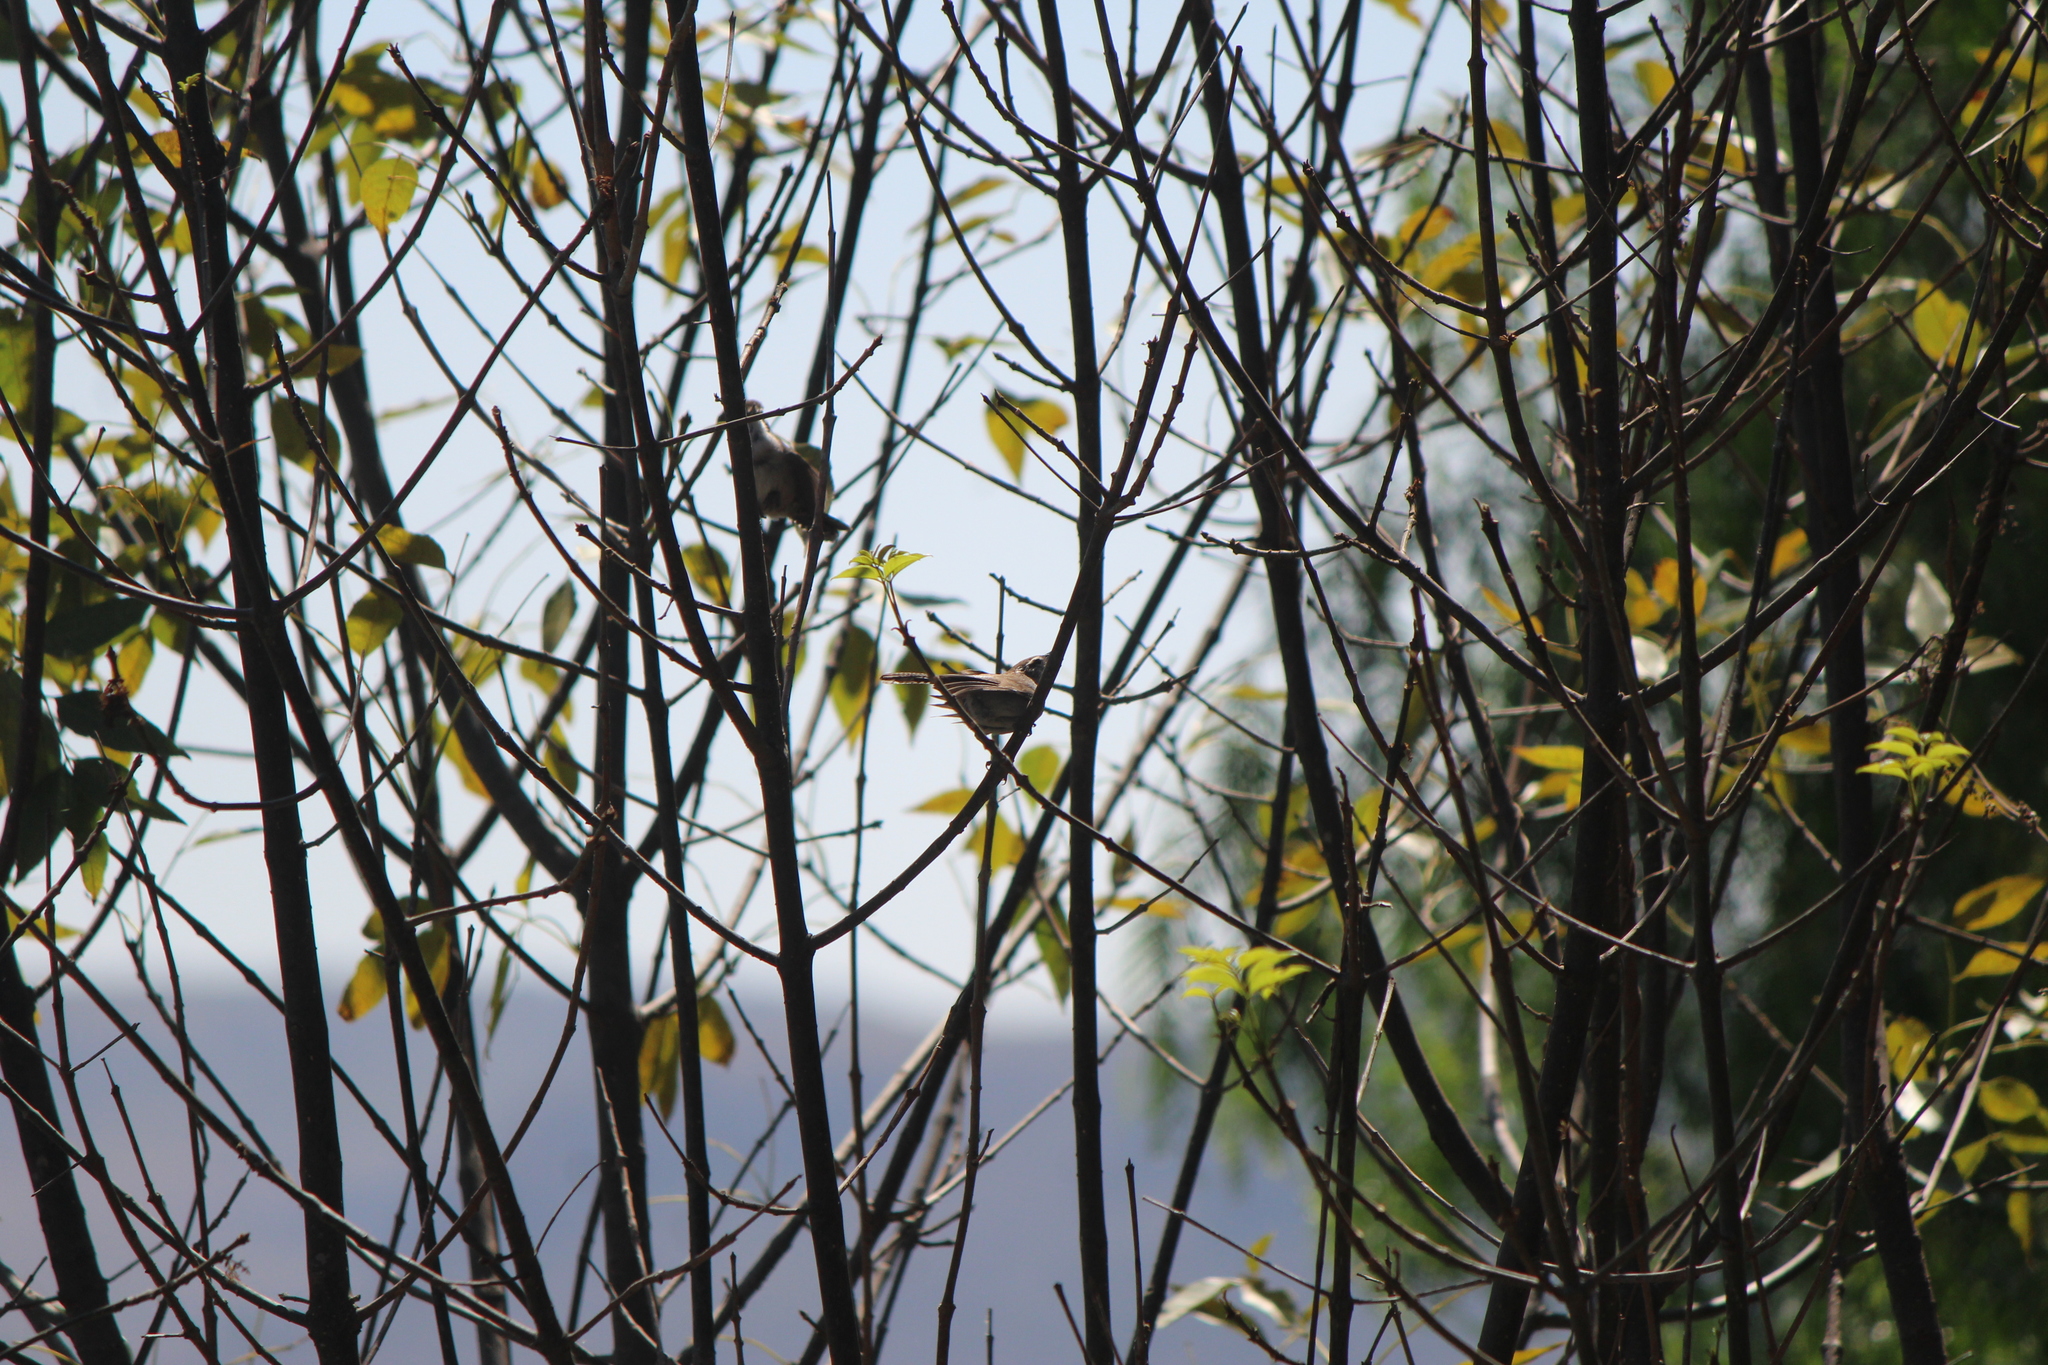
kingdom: Animalia
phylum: Chordata
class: Aves
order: Passeriformes
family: Troglodytidae
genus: Thryomanes
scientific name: Thryomanes bewickii
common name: Bewick's wren
